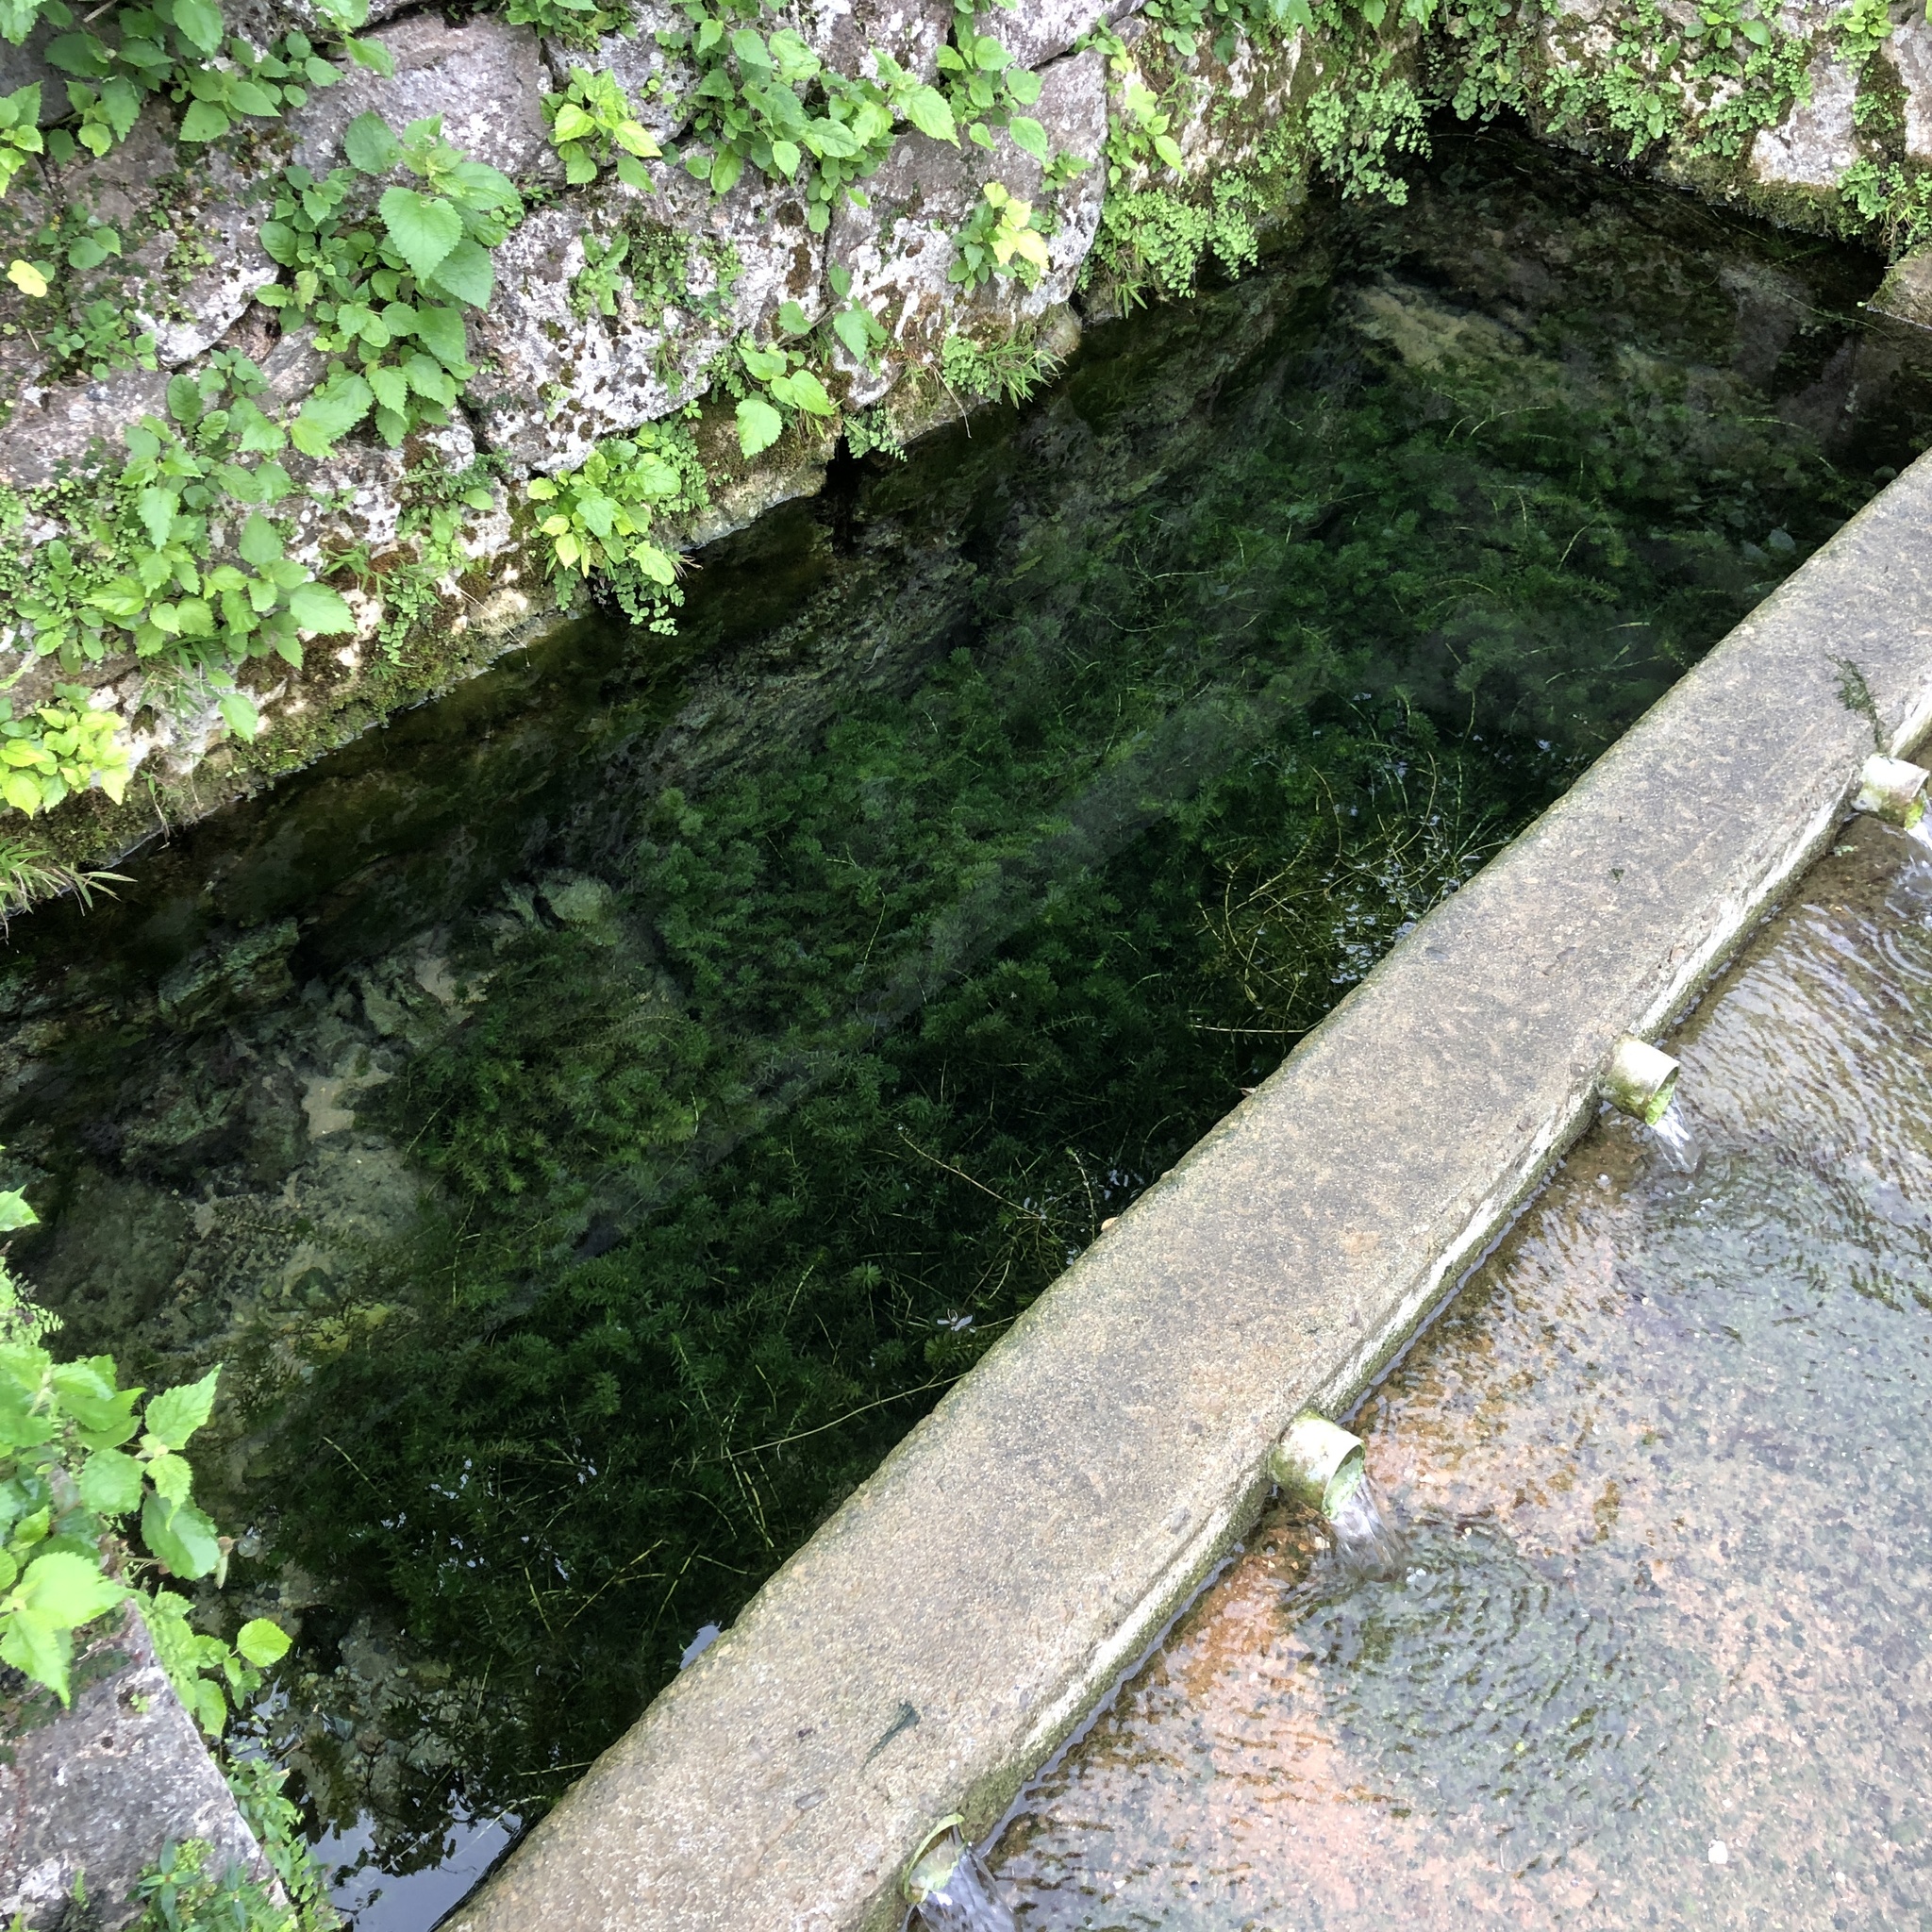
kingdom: Plantae
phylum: Tracheophyta
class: Liliopsida
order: Alismatales
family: Hydrocharitaceae
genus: Hydrilla
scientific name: Hydrilla verticillata
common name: Florida-elodea
